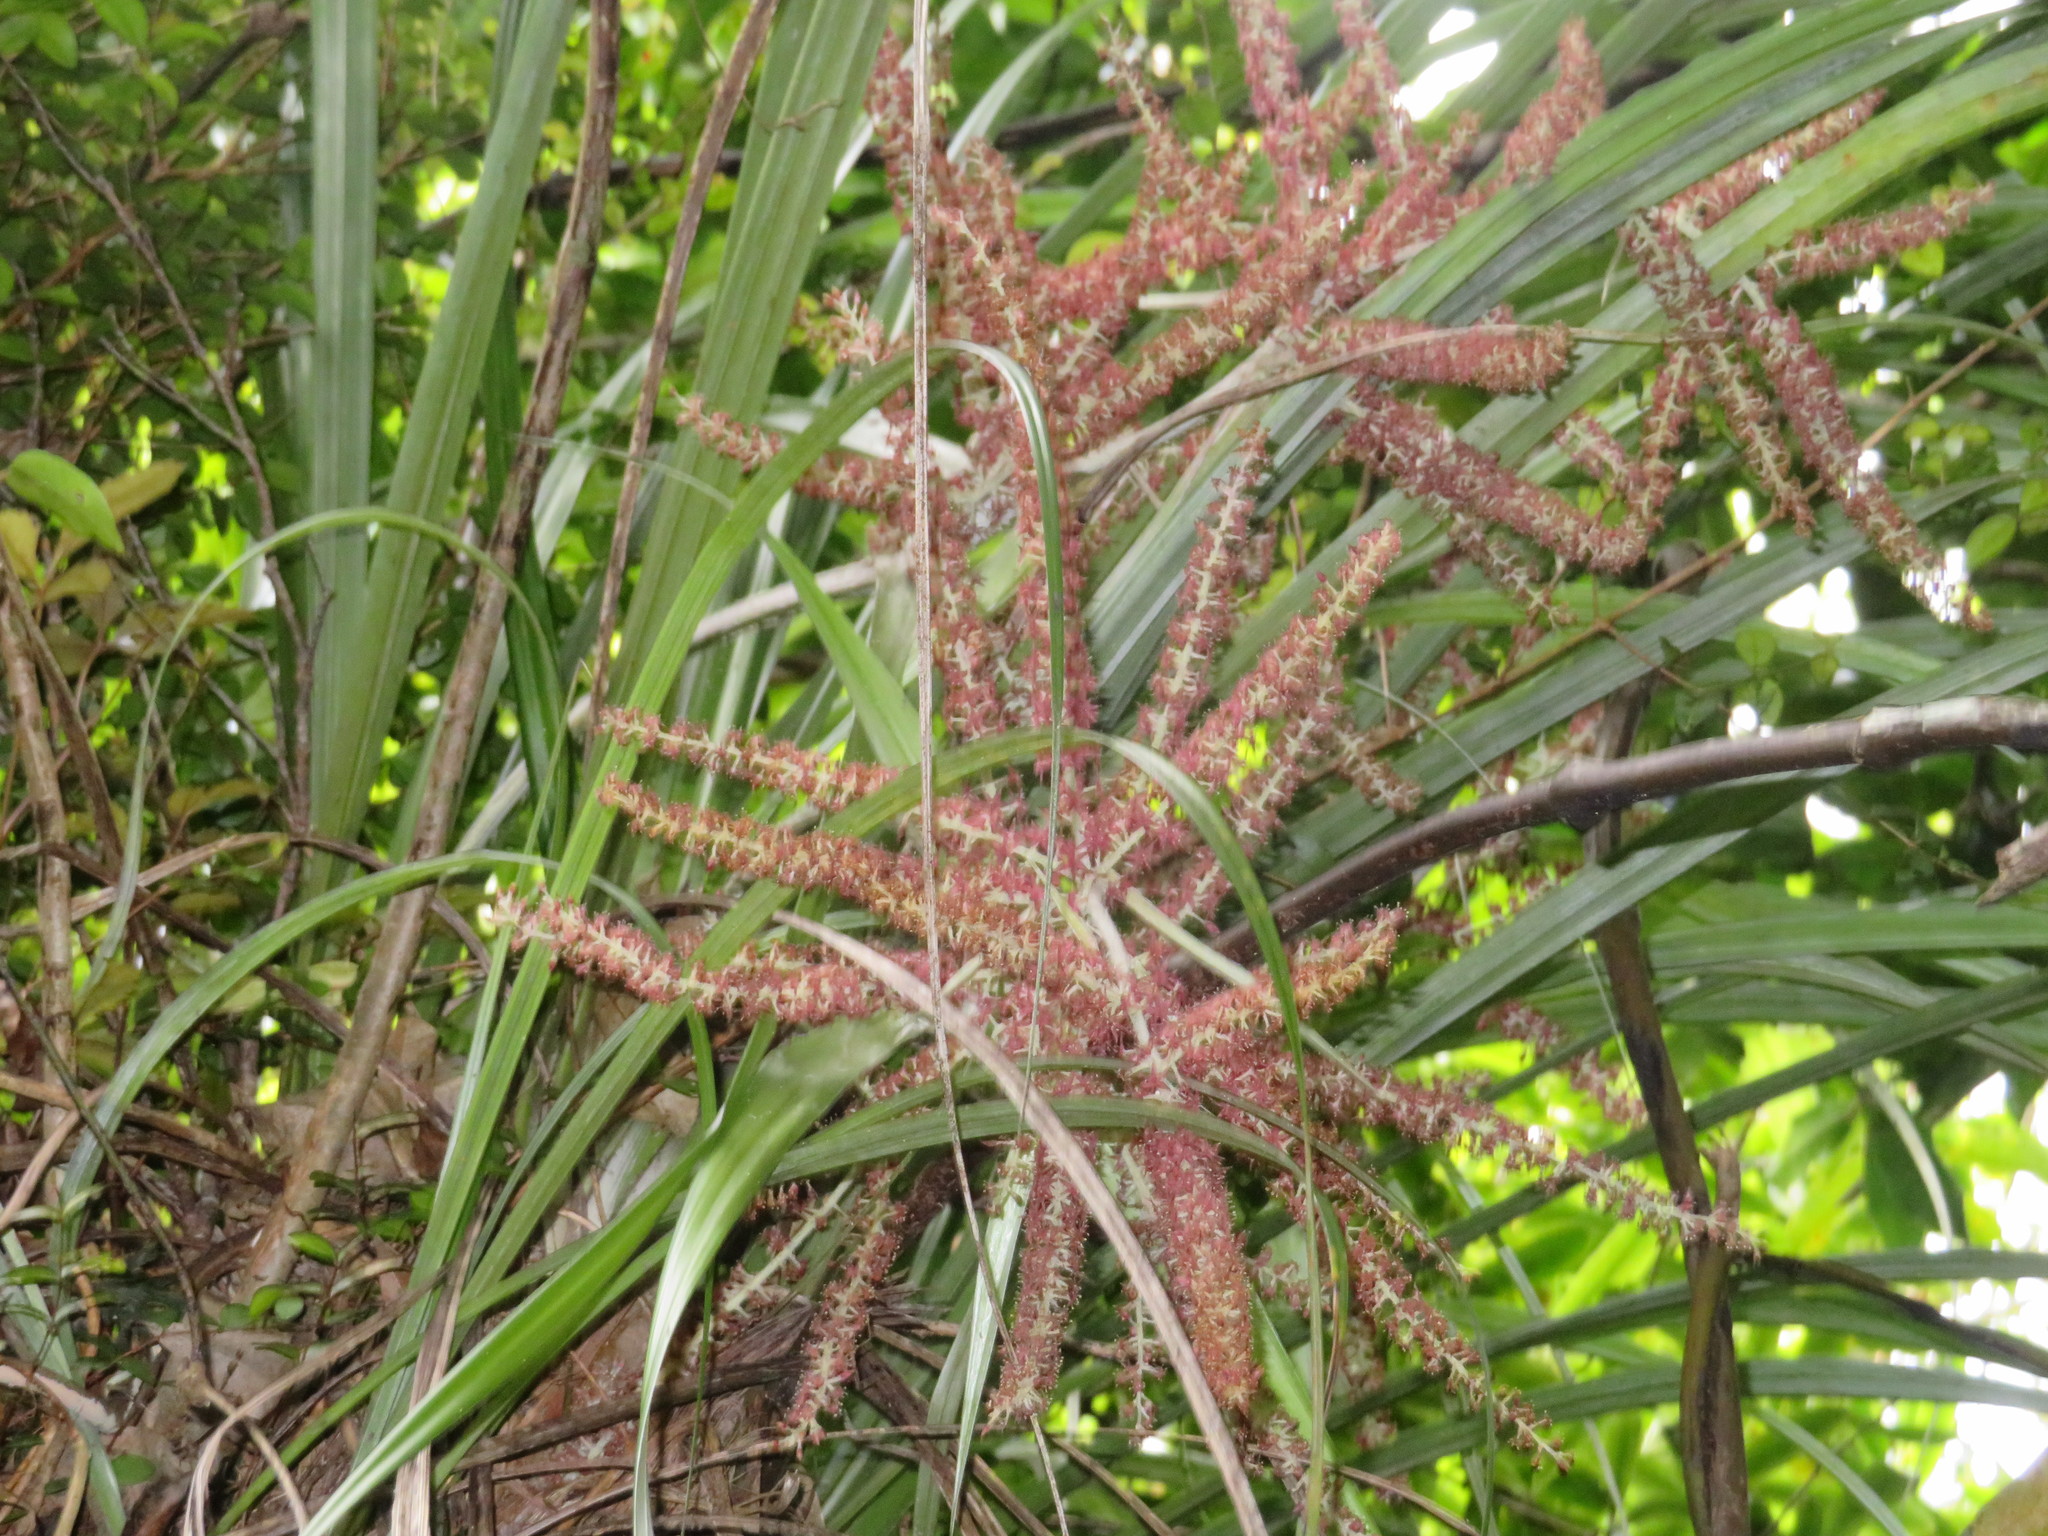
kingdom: Plantae
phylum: Tracheophyta
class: Liliopsida
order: Asparagales
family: Asteliaceae
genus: Astelia
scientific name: Astelia solandri
